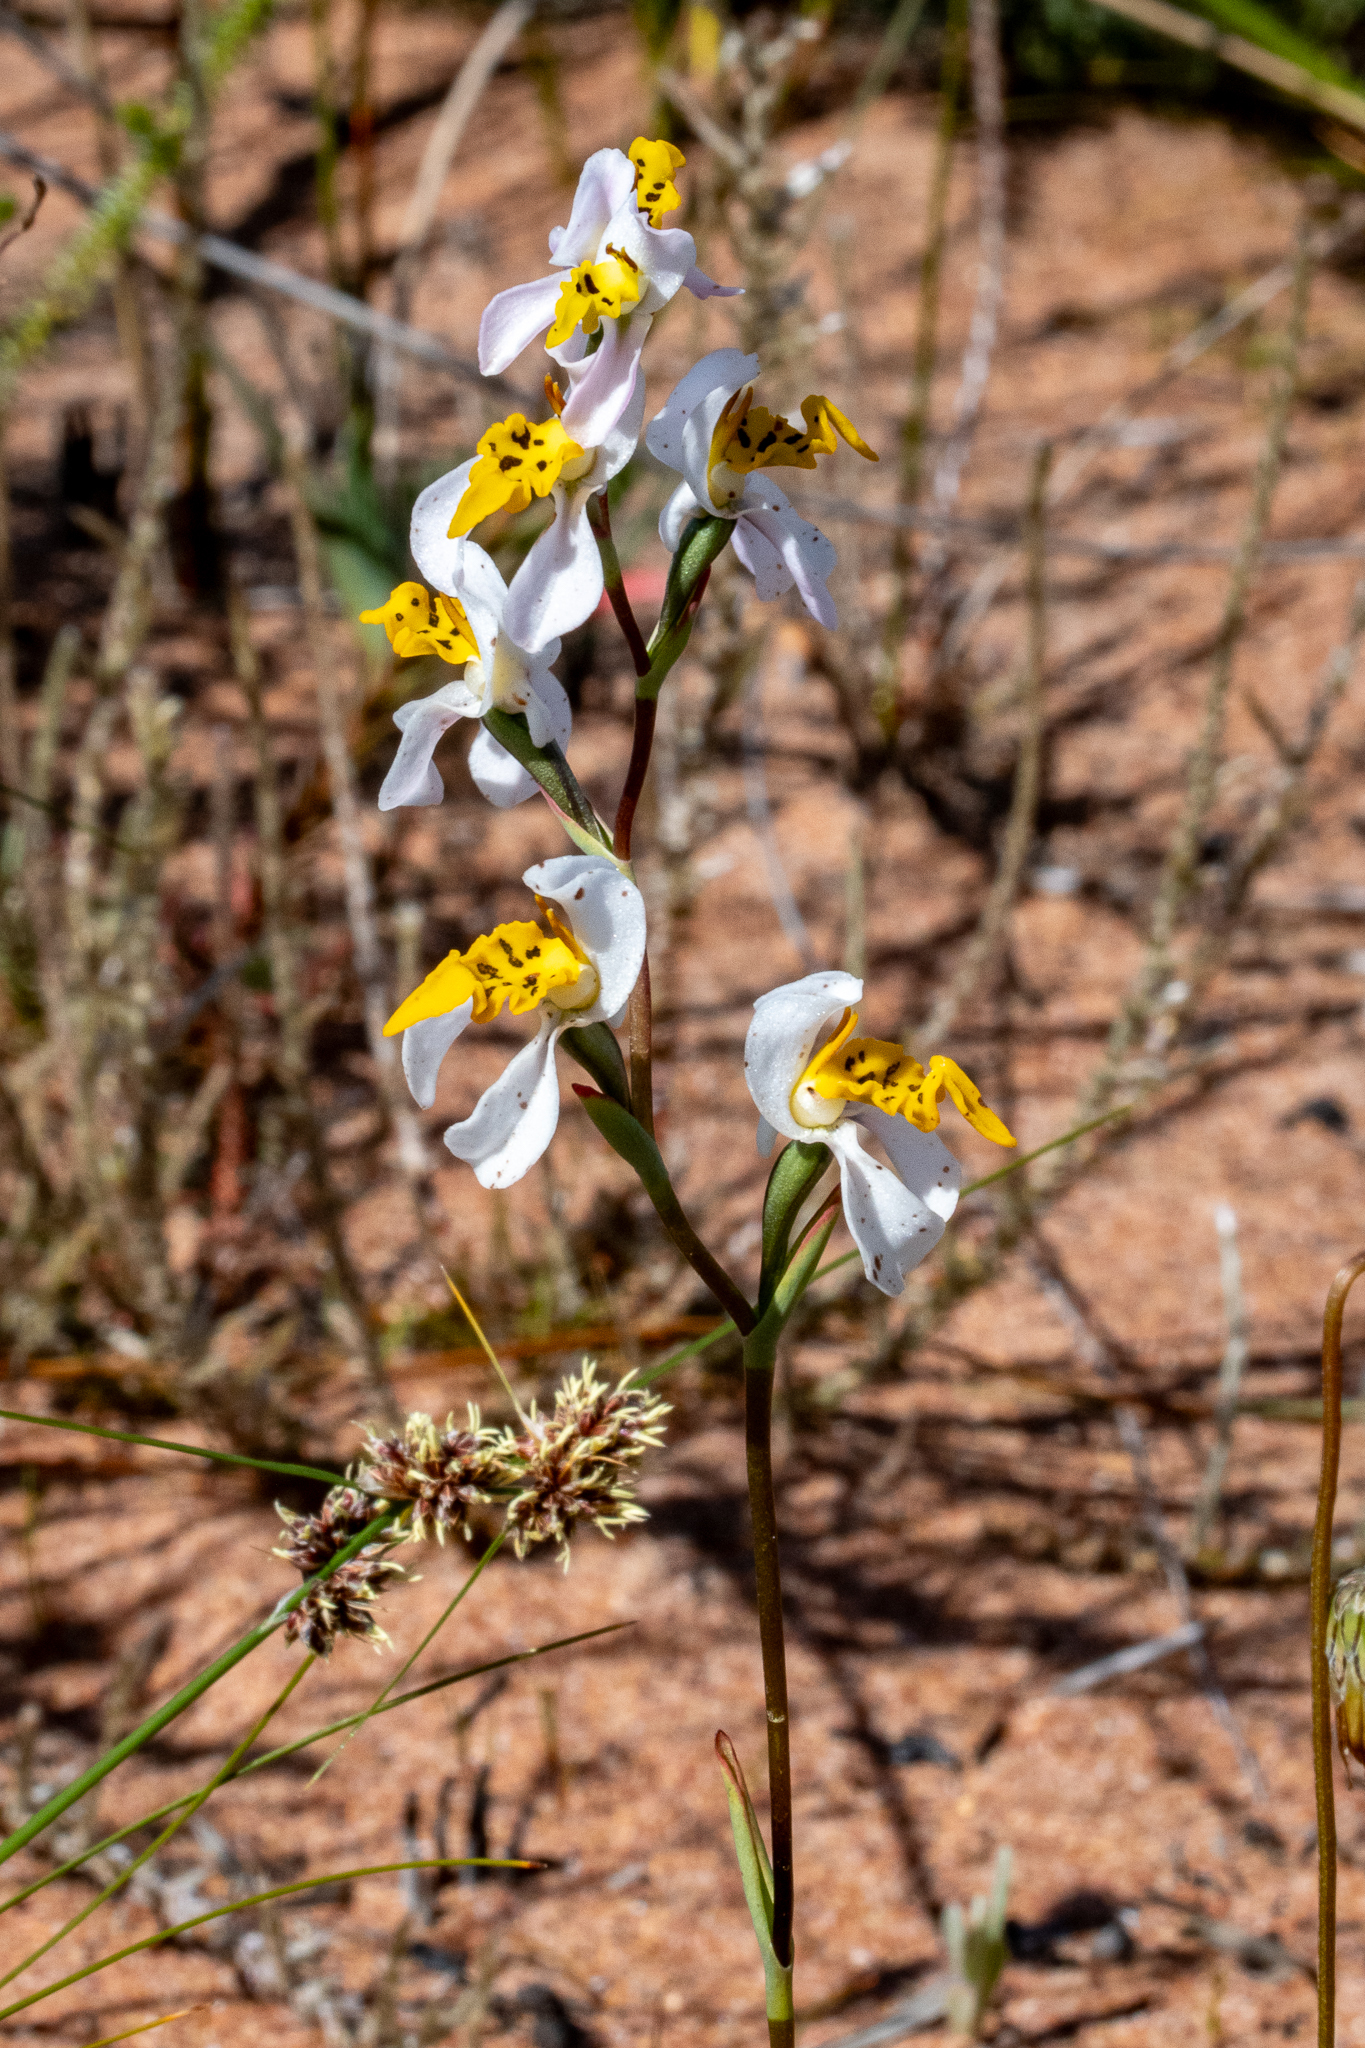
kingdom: Plantae
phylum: Tracheophyta
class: Liliopsida
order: Asparagales
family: Orchidaceae
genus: Disa
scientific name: Disa flexuosa
